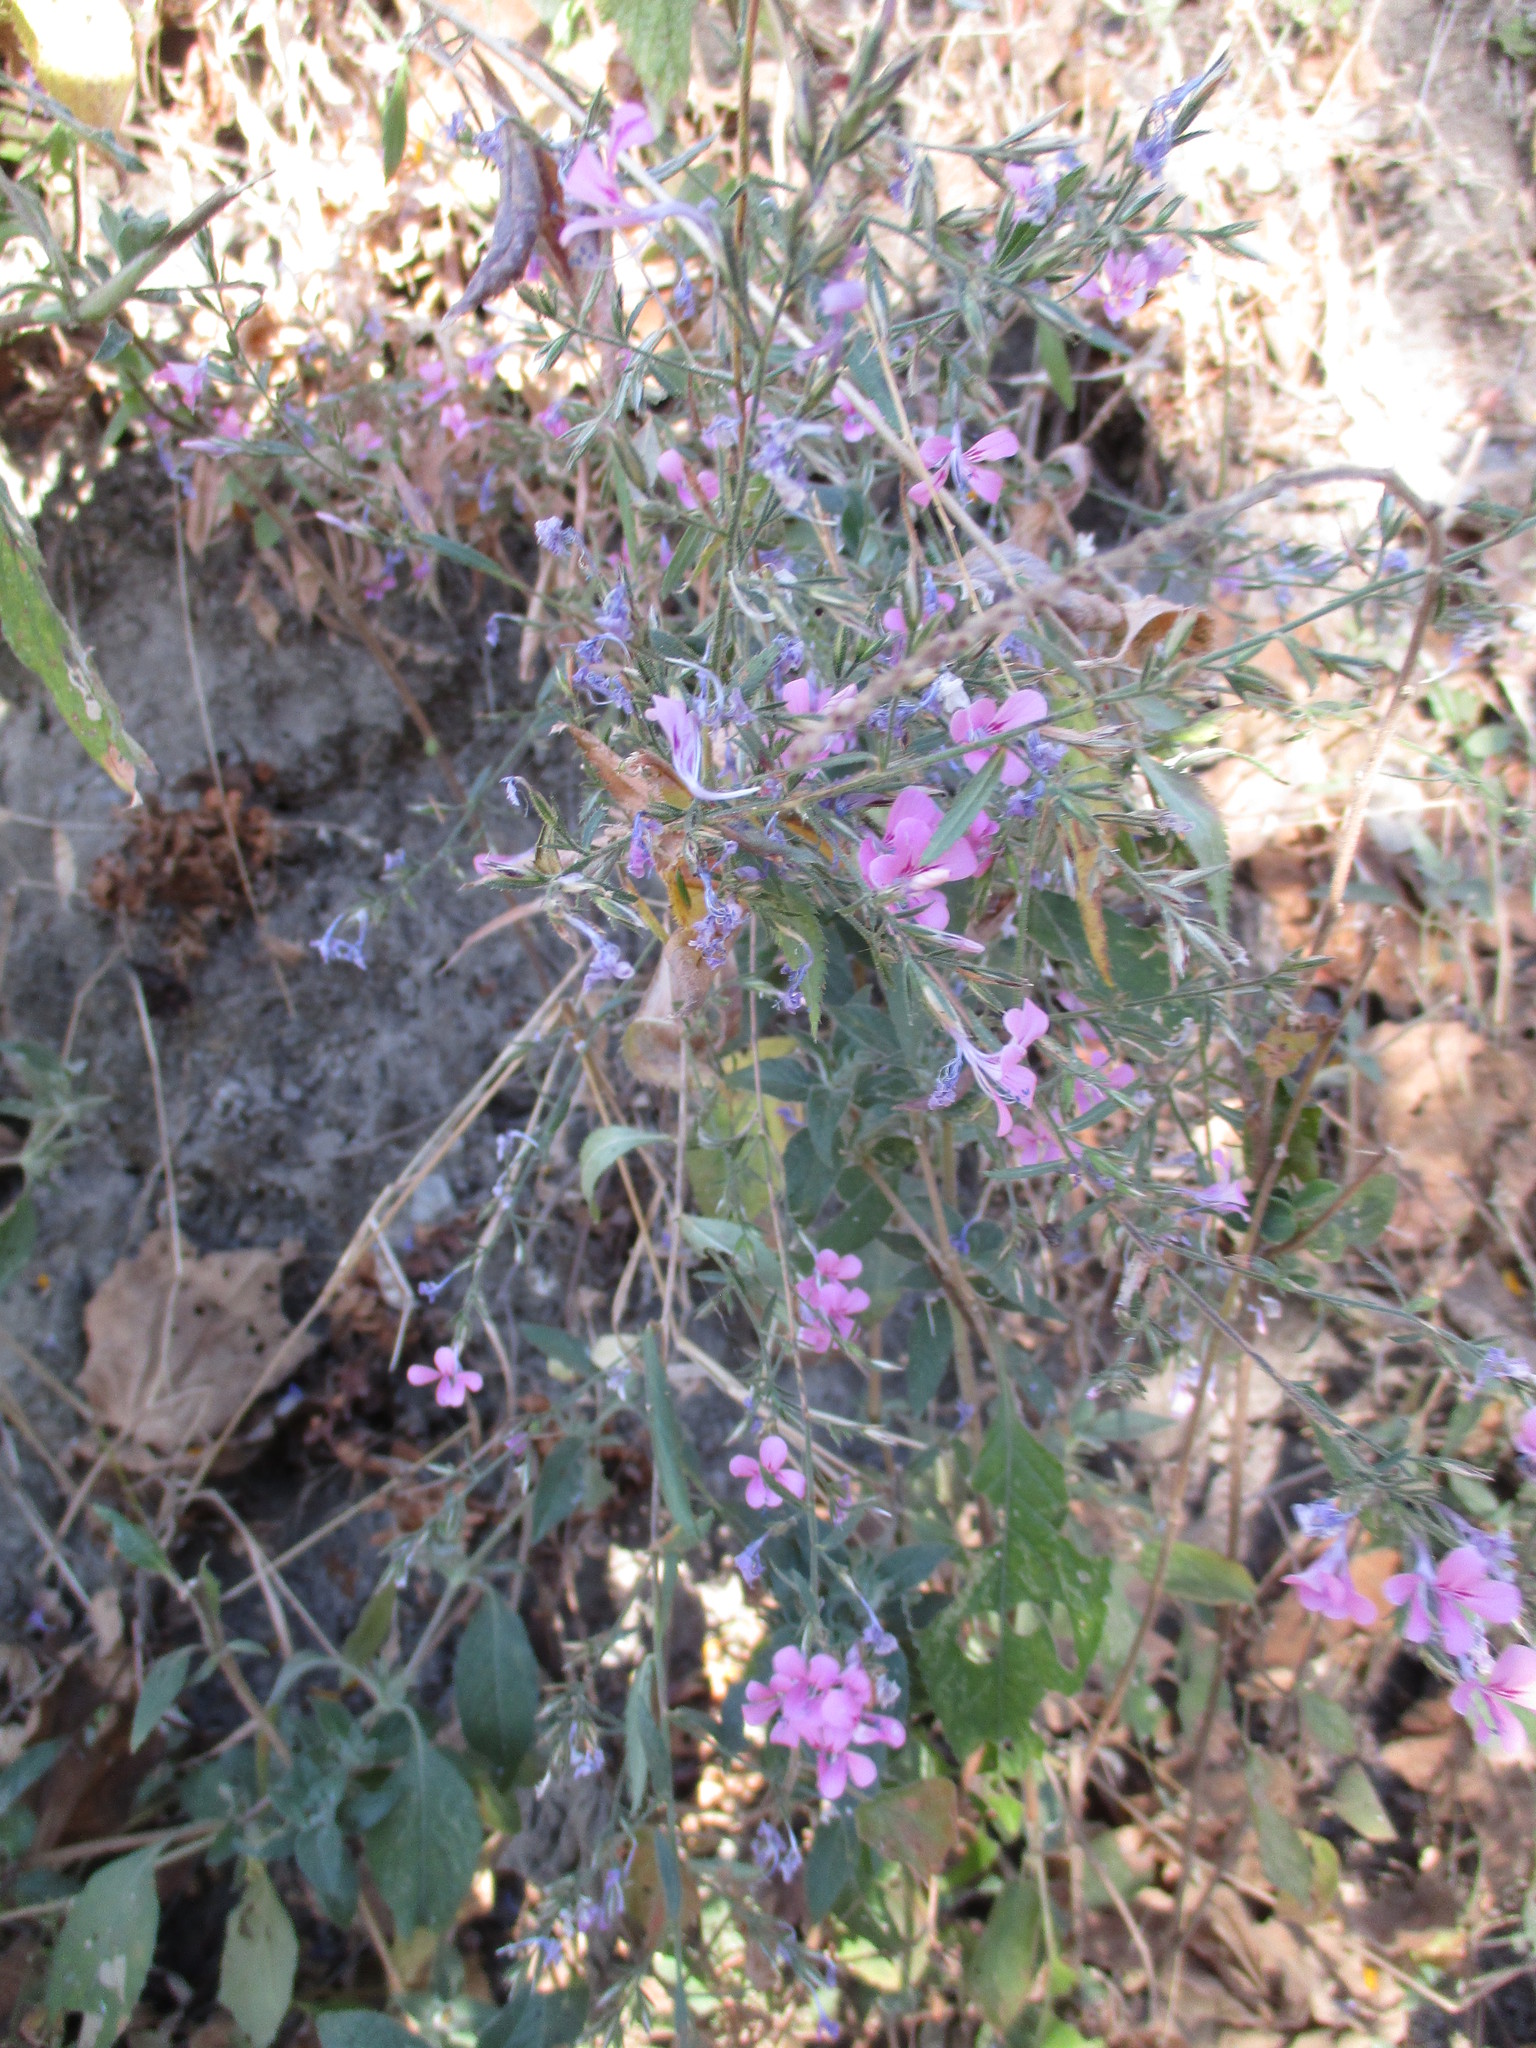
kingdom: Plantae
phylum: Tracheophyta
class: Magnoliopsida
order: Ericales
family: Polemoniaceae
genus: Loeselia
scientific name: Loeselia glandulosa
